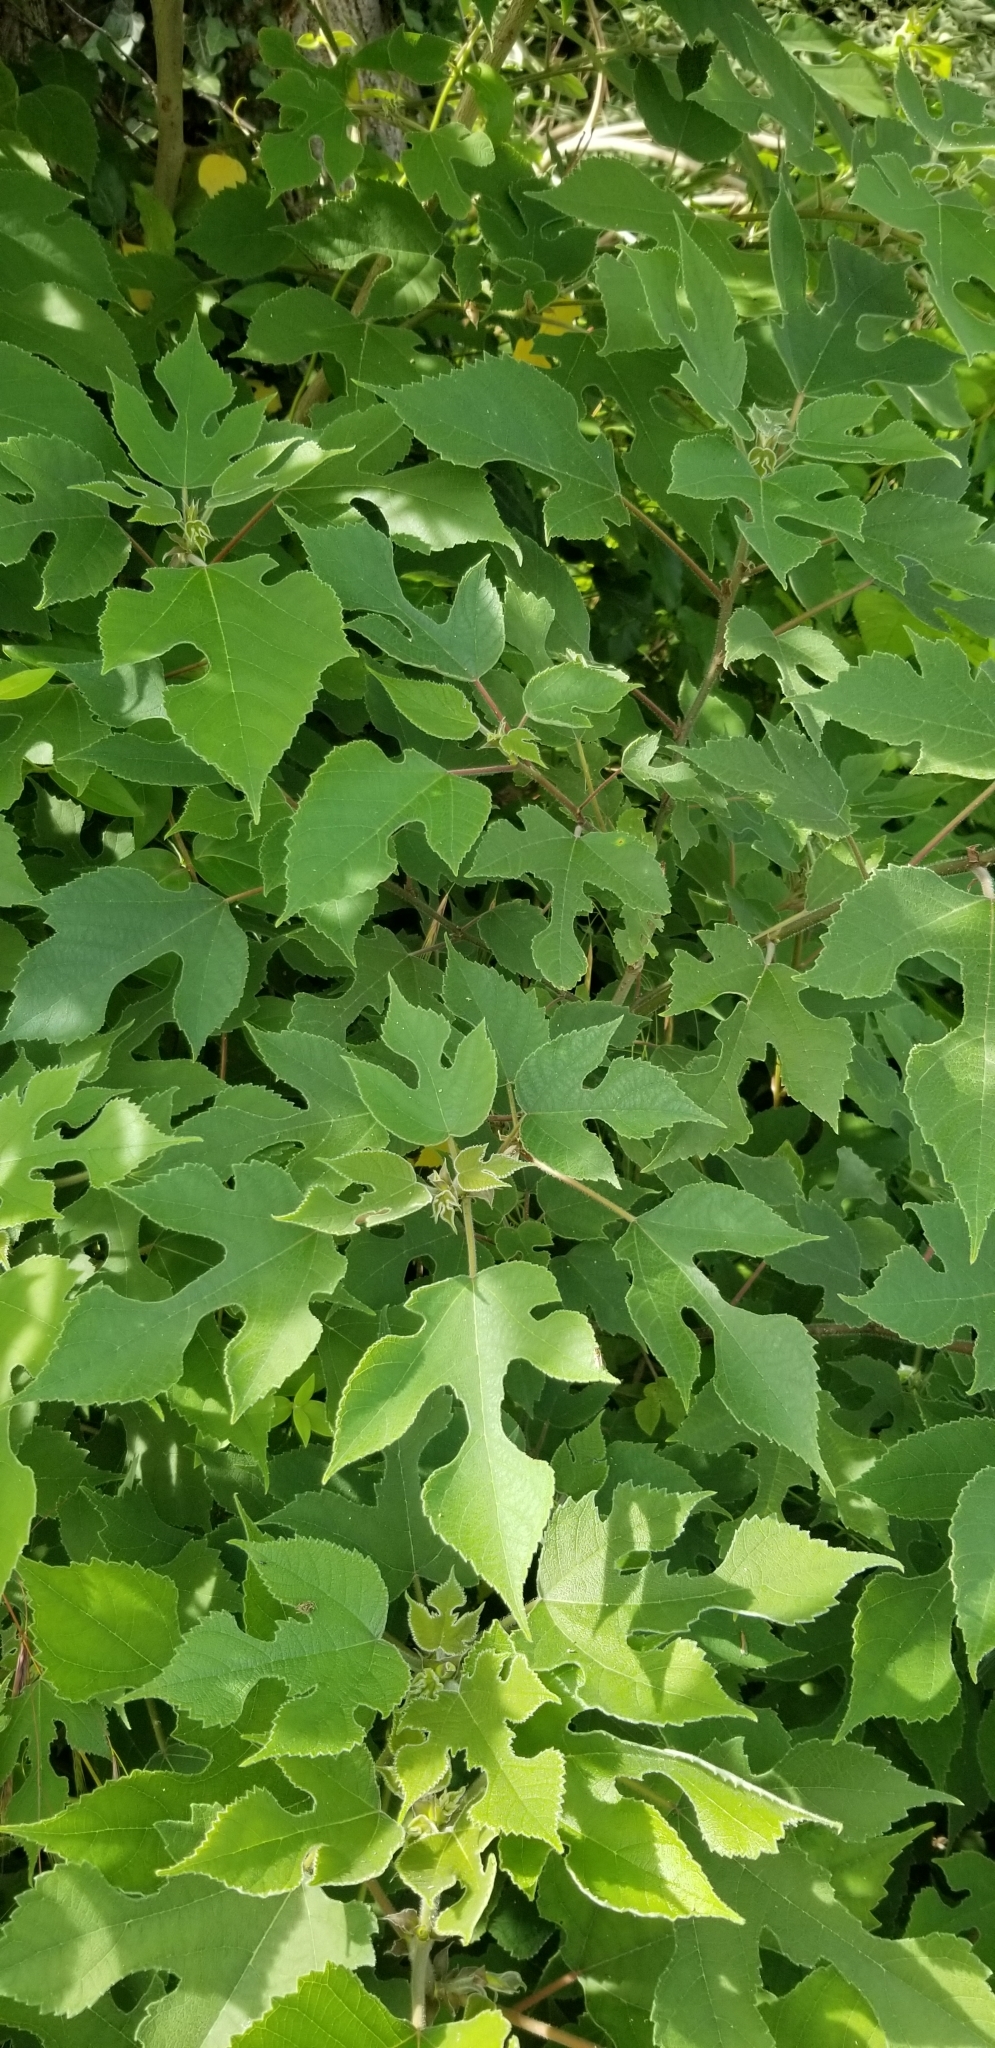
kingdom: Plantae
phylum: Tracheophyta
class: Magnoliopsida
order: Rosales
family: Moraceae
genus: Broussonetia
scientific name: Broussonetia papyrifera
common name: Paper mulberry
